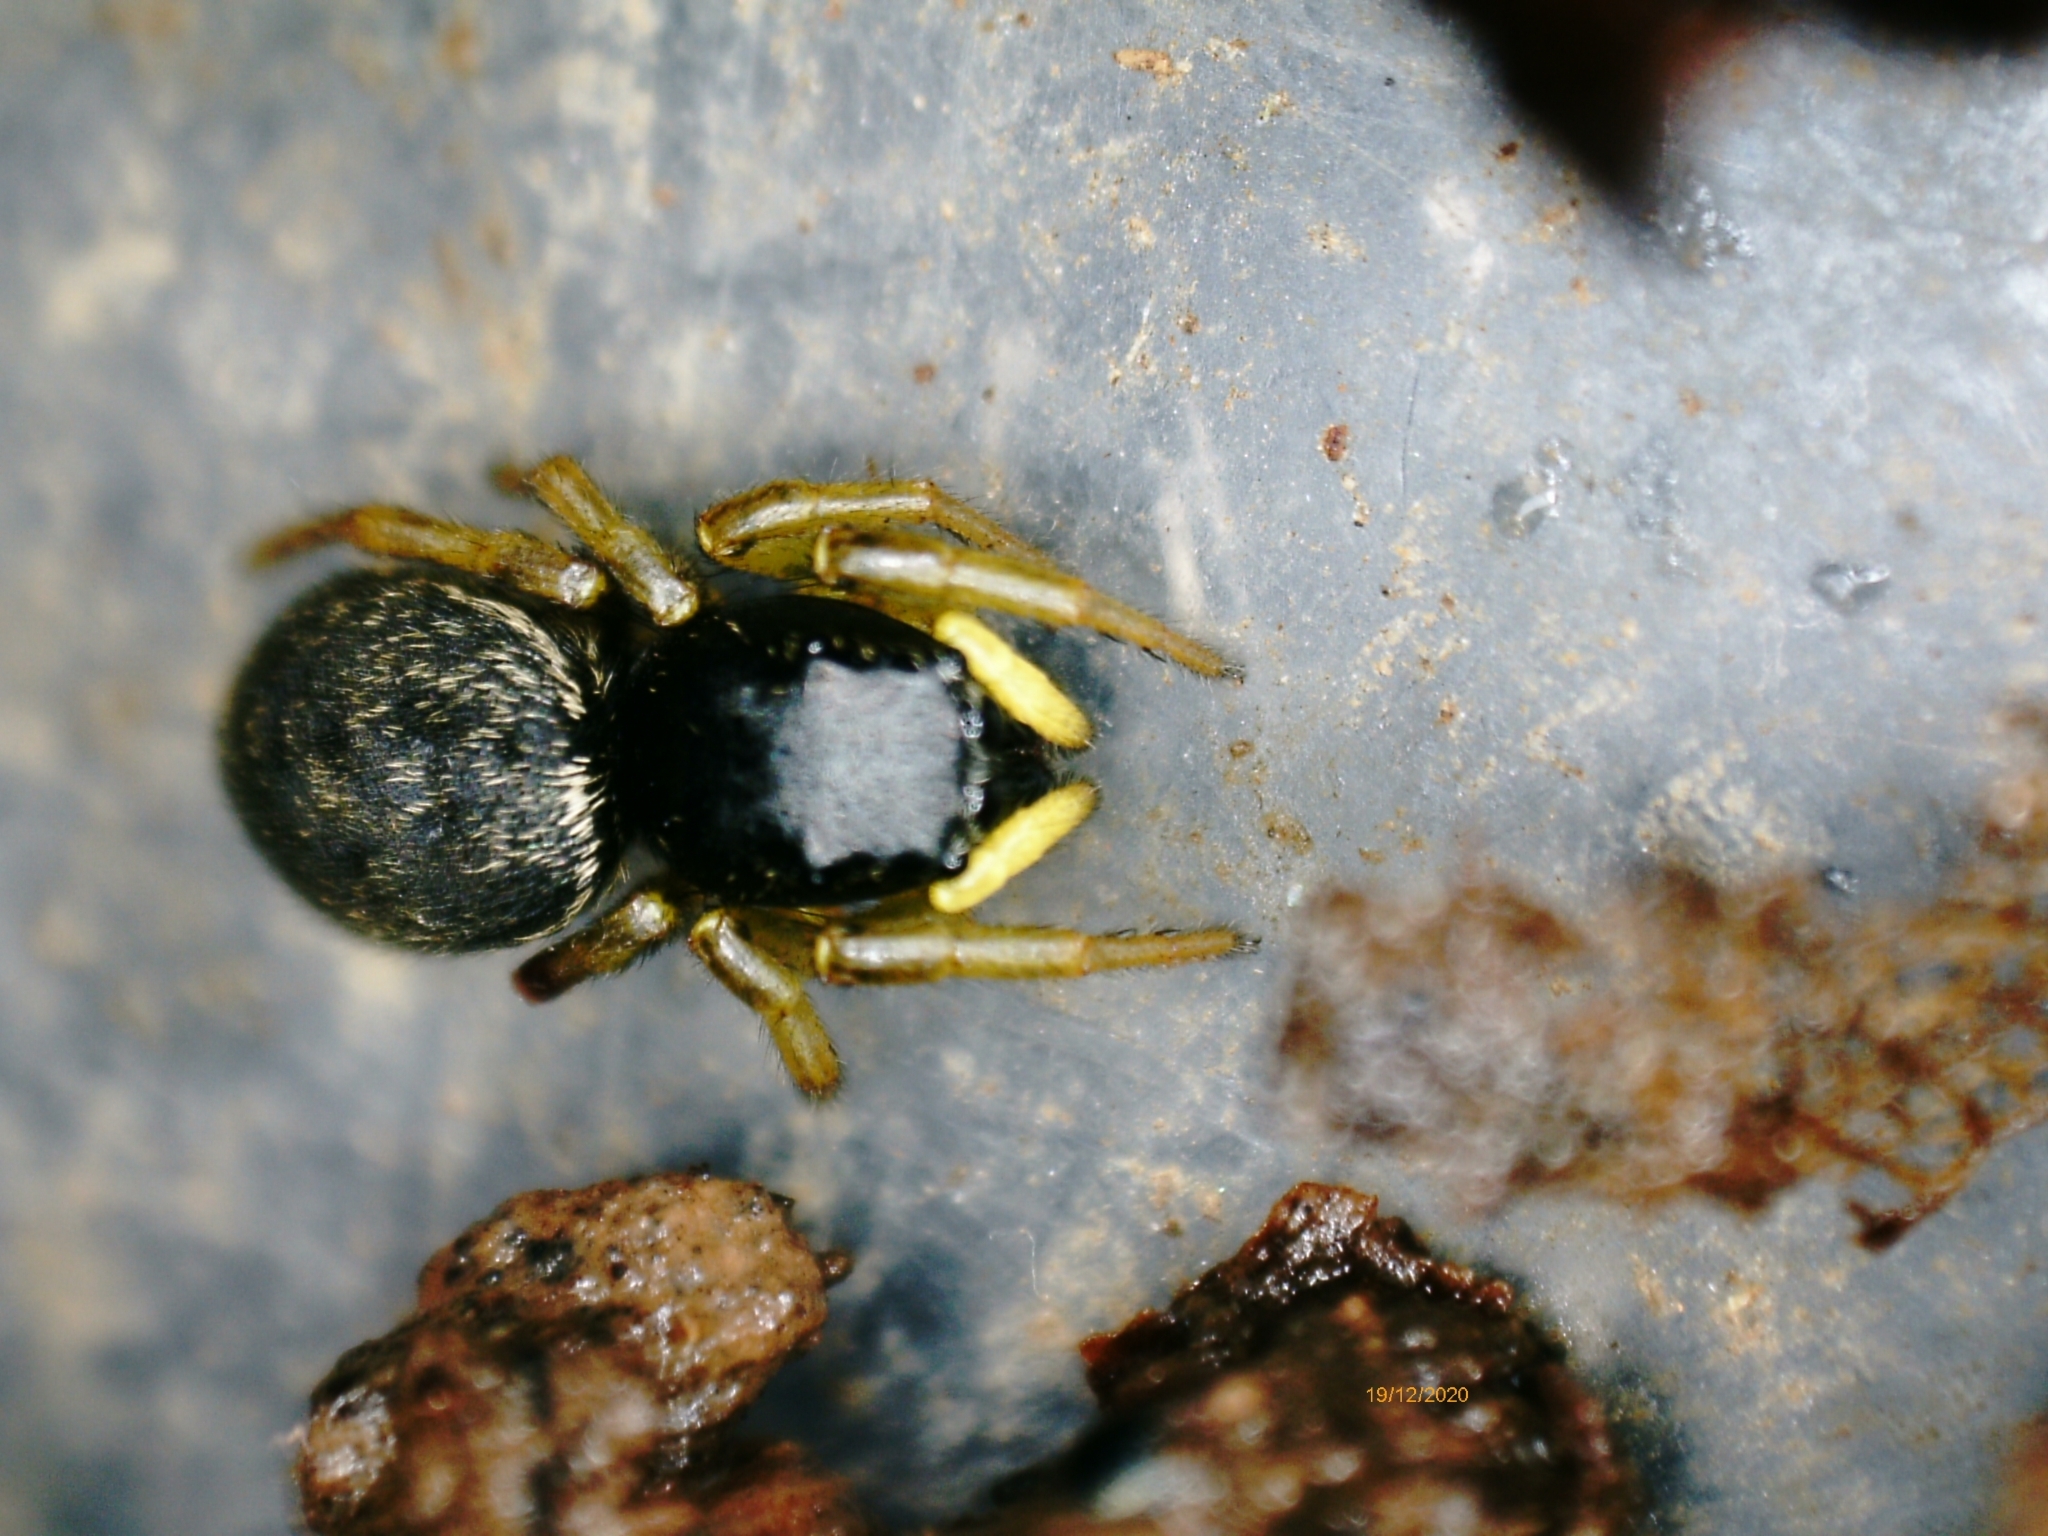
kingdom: Animalia
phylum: Arthropoda
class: Arachnida
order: Araneae
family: Salticidae
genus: Heliophanus
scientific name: Heliophanus
